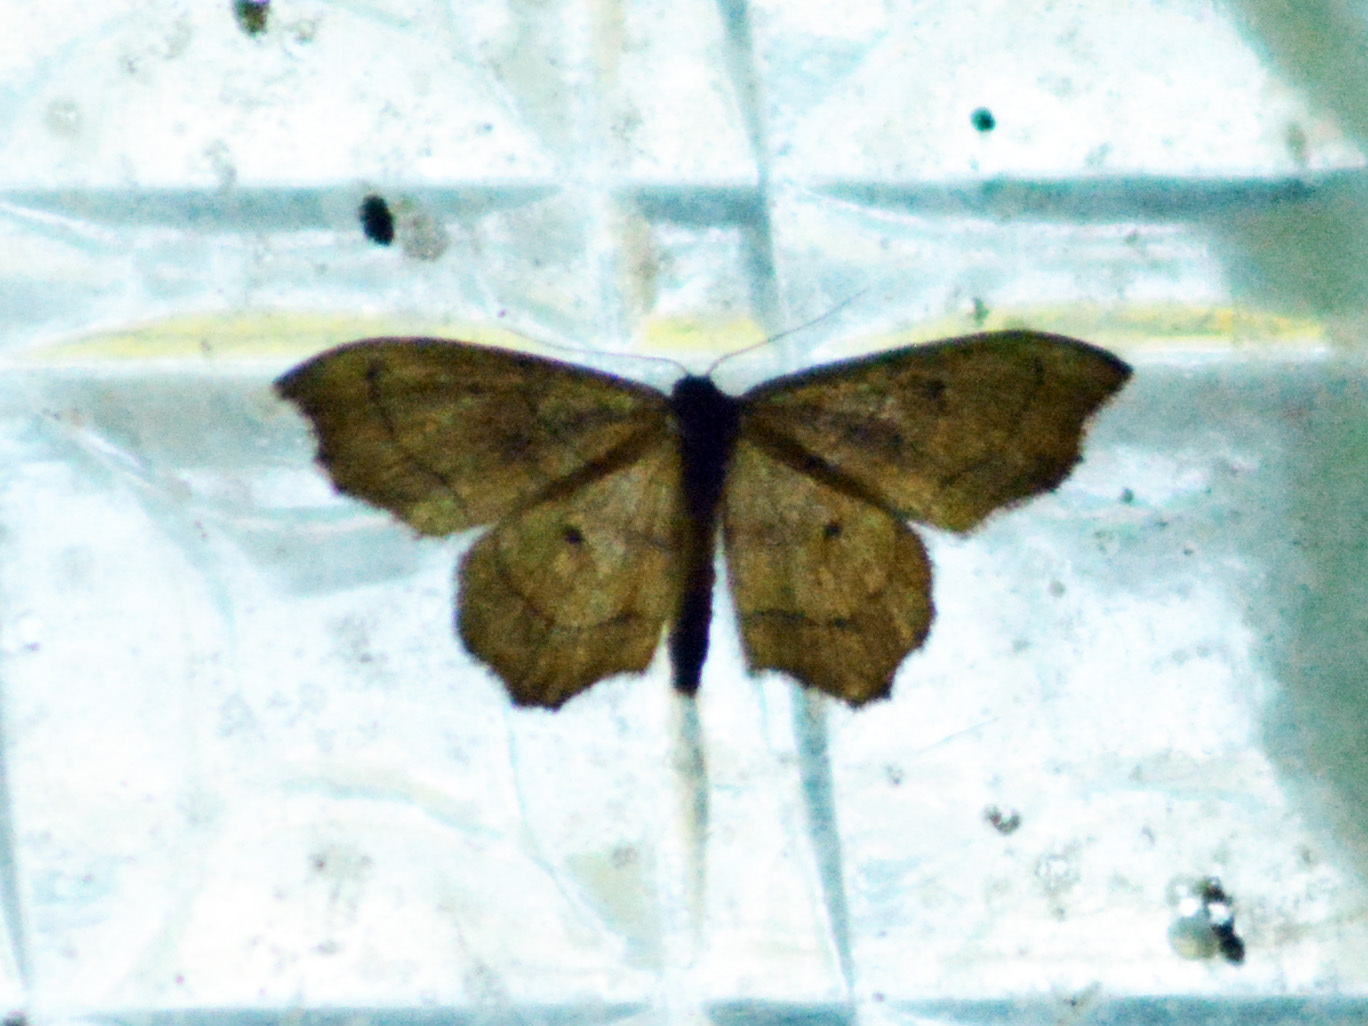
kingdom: Animalia
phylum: Arthropoda
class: Insecta
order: Lepidoptera
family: Geometridae
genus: Idaea
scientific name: Idaea emarginata
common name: Small scallop
